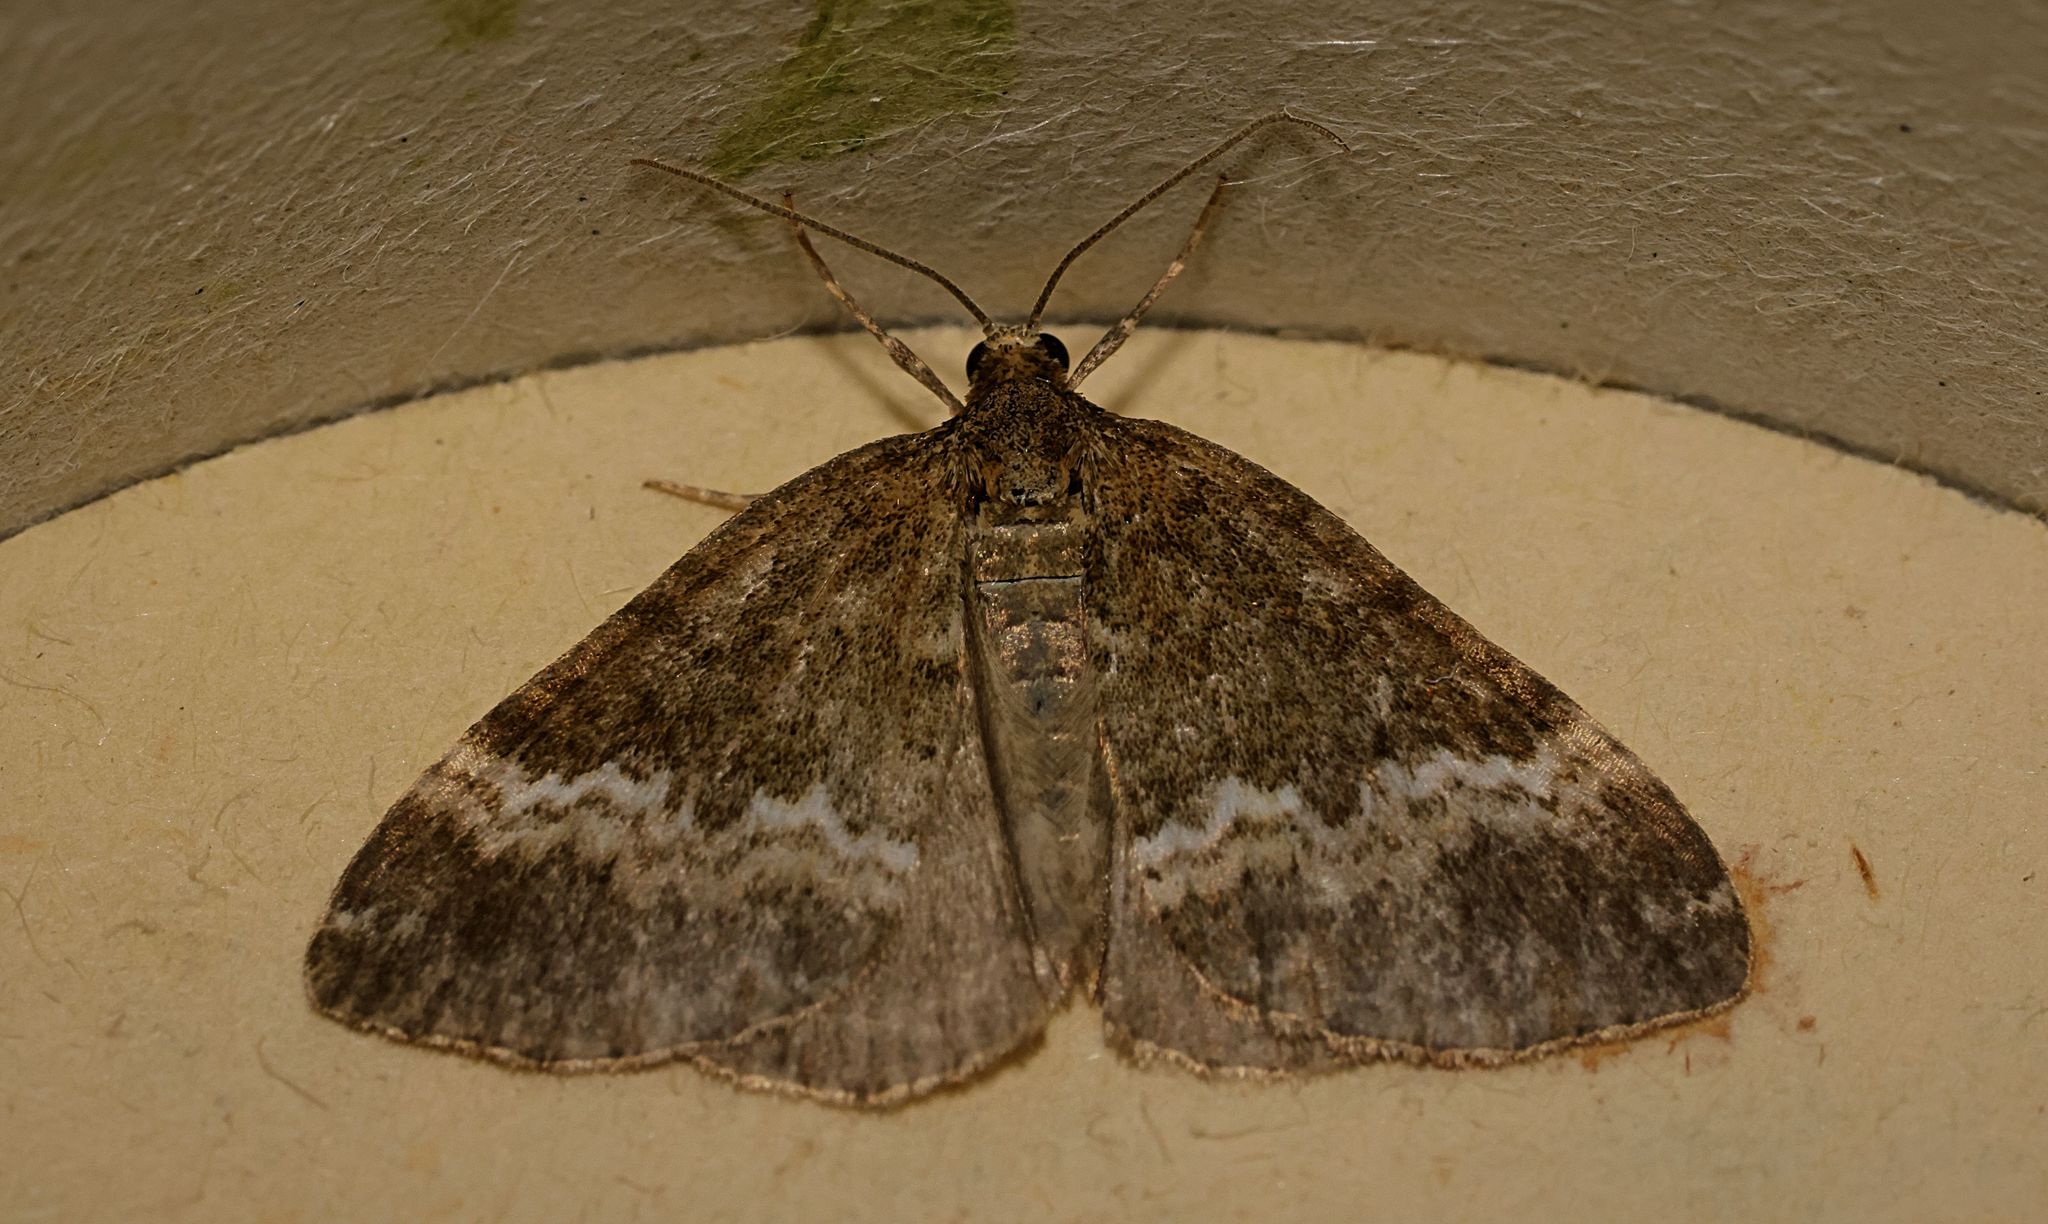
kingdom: Animalia
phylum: Arthropoda
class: Insecta
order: Lepidoptera
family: Geometridae
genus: Perizoma
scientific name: Perizoma affinitata
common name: Rivulet
